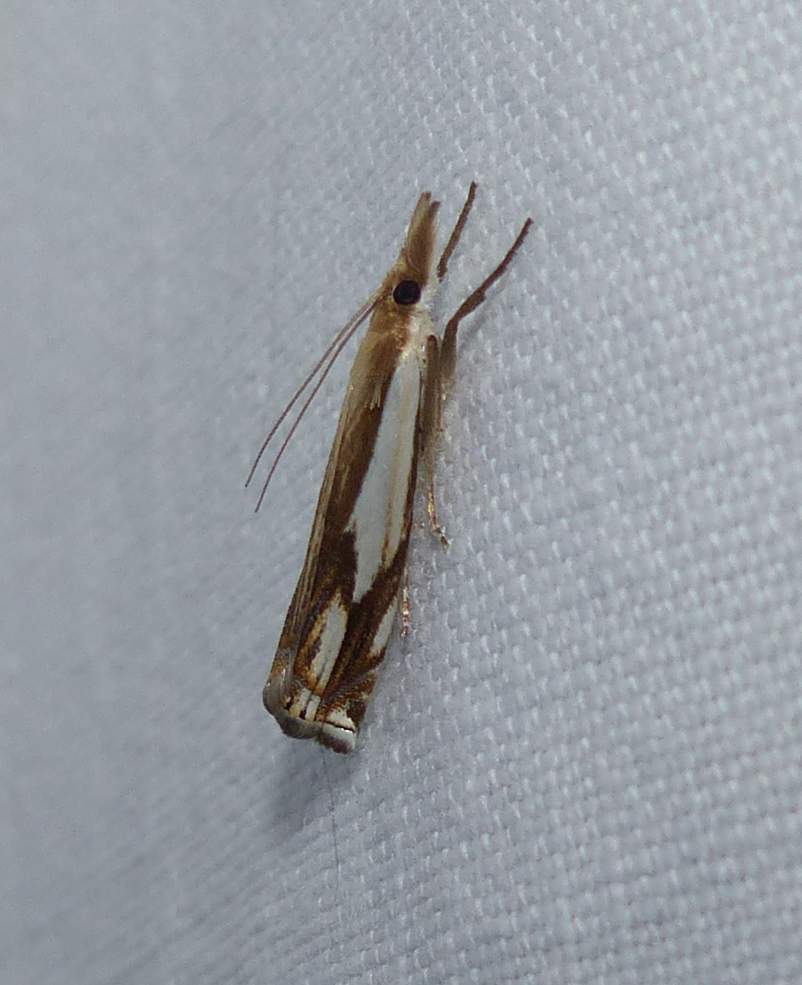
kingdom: Animalia
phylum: Arthropoda
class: Insecta
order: Lepidoptera
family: Crambidae
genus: Crambus
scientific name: Crambus agitatellus
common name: Double-banded grass-veneer
